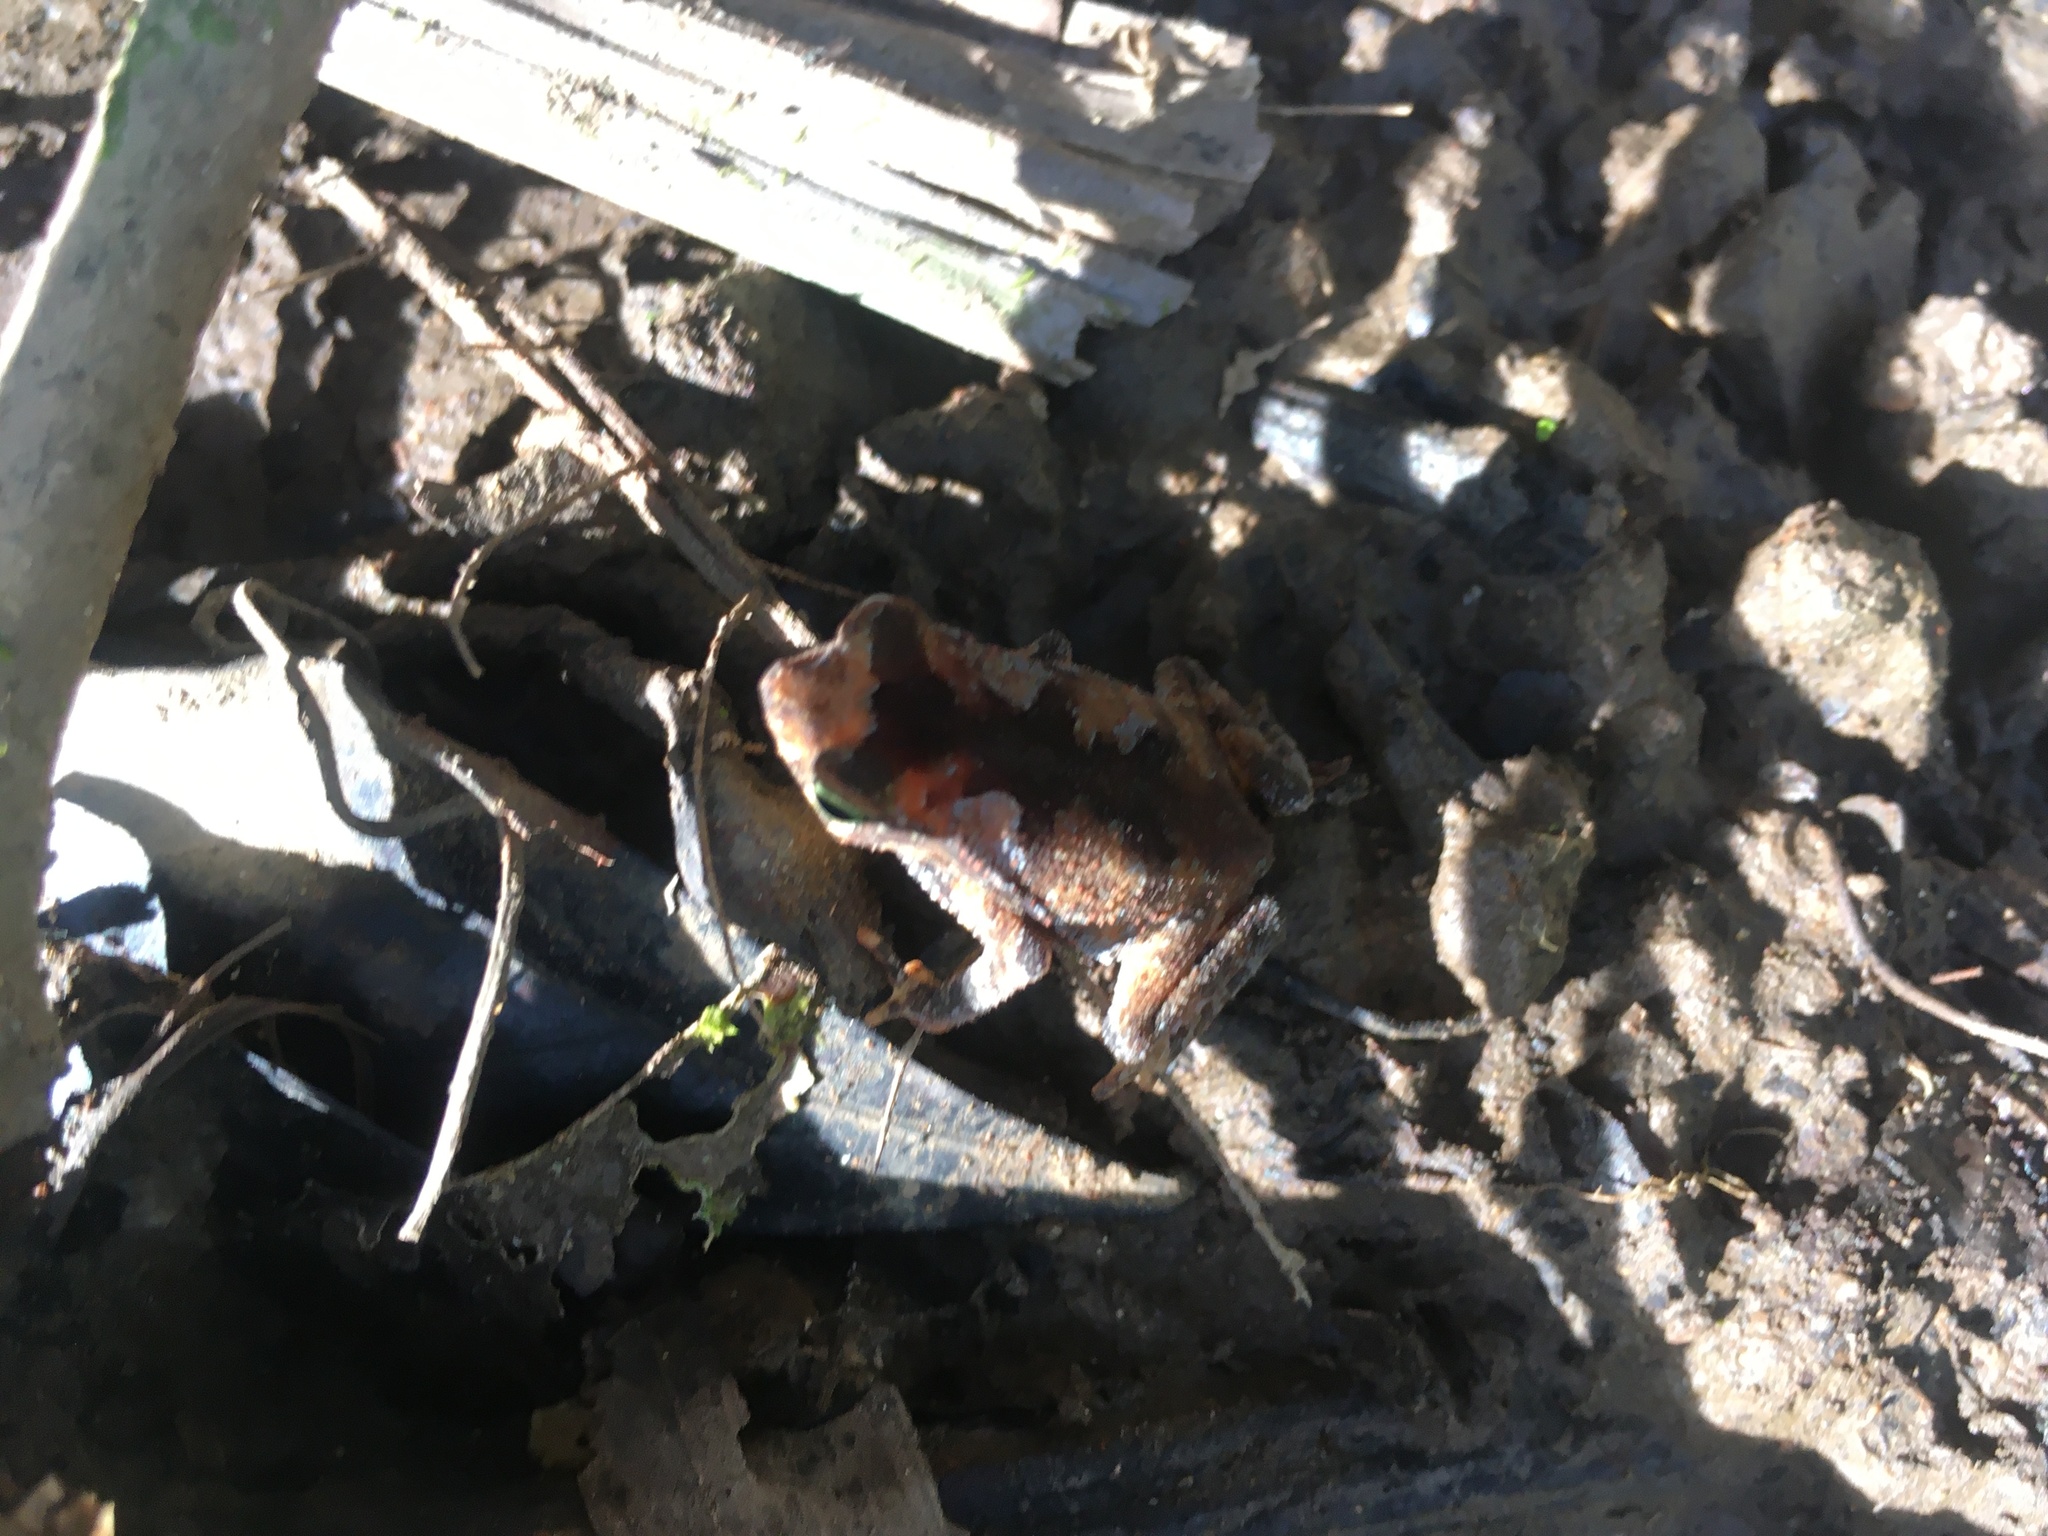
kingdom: Animalia
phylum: Chordata
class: Amphibia
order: Anura
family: Bufonidae
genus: Rhinella
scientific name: Rhinella alata
